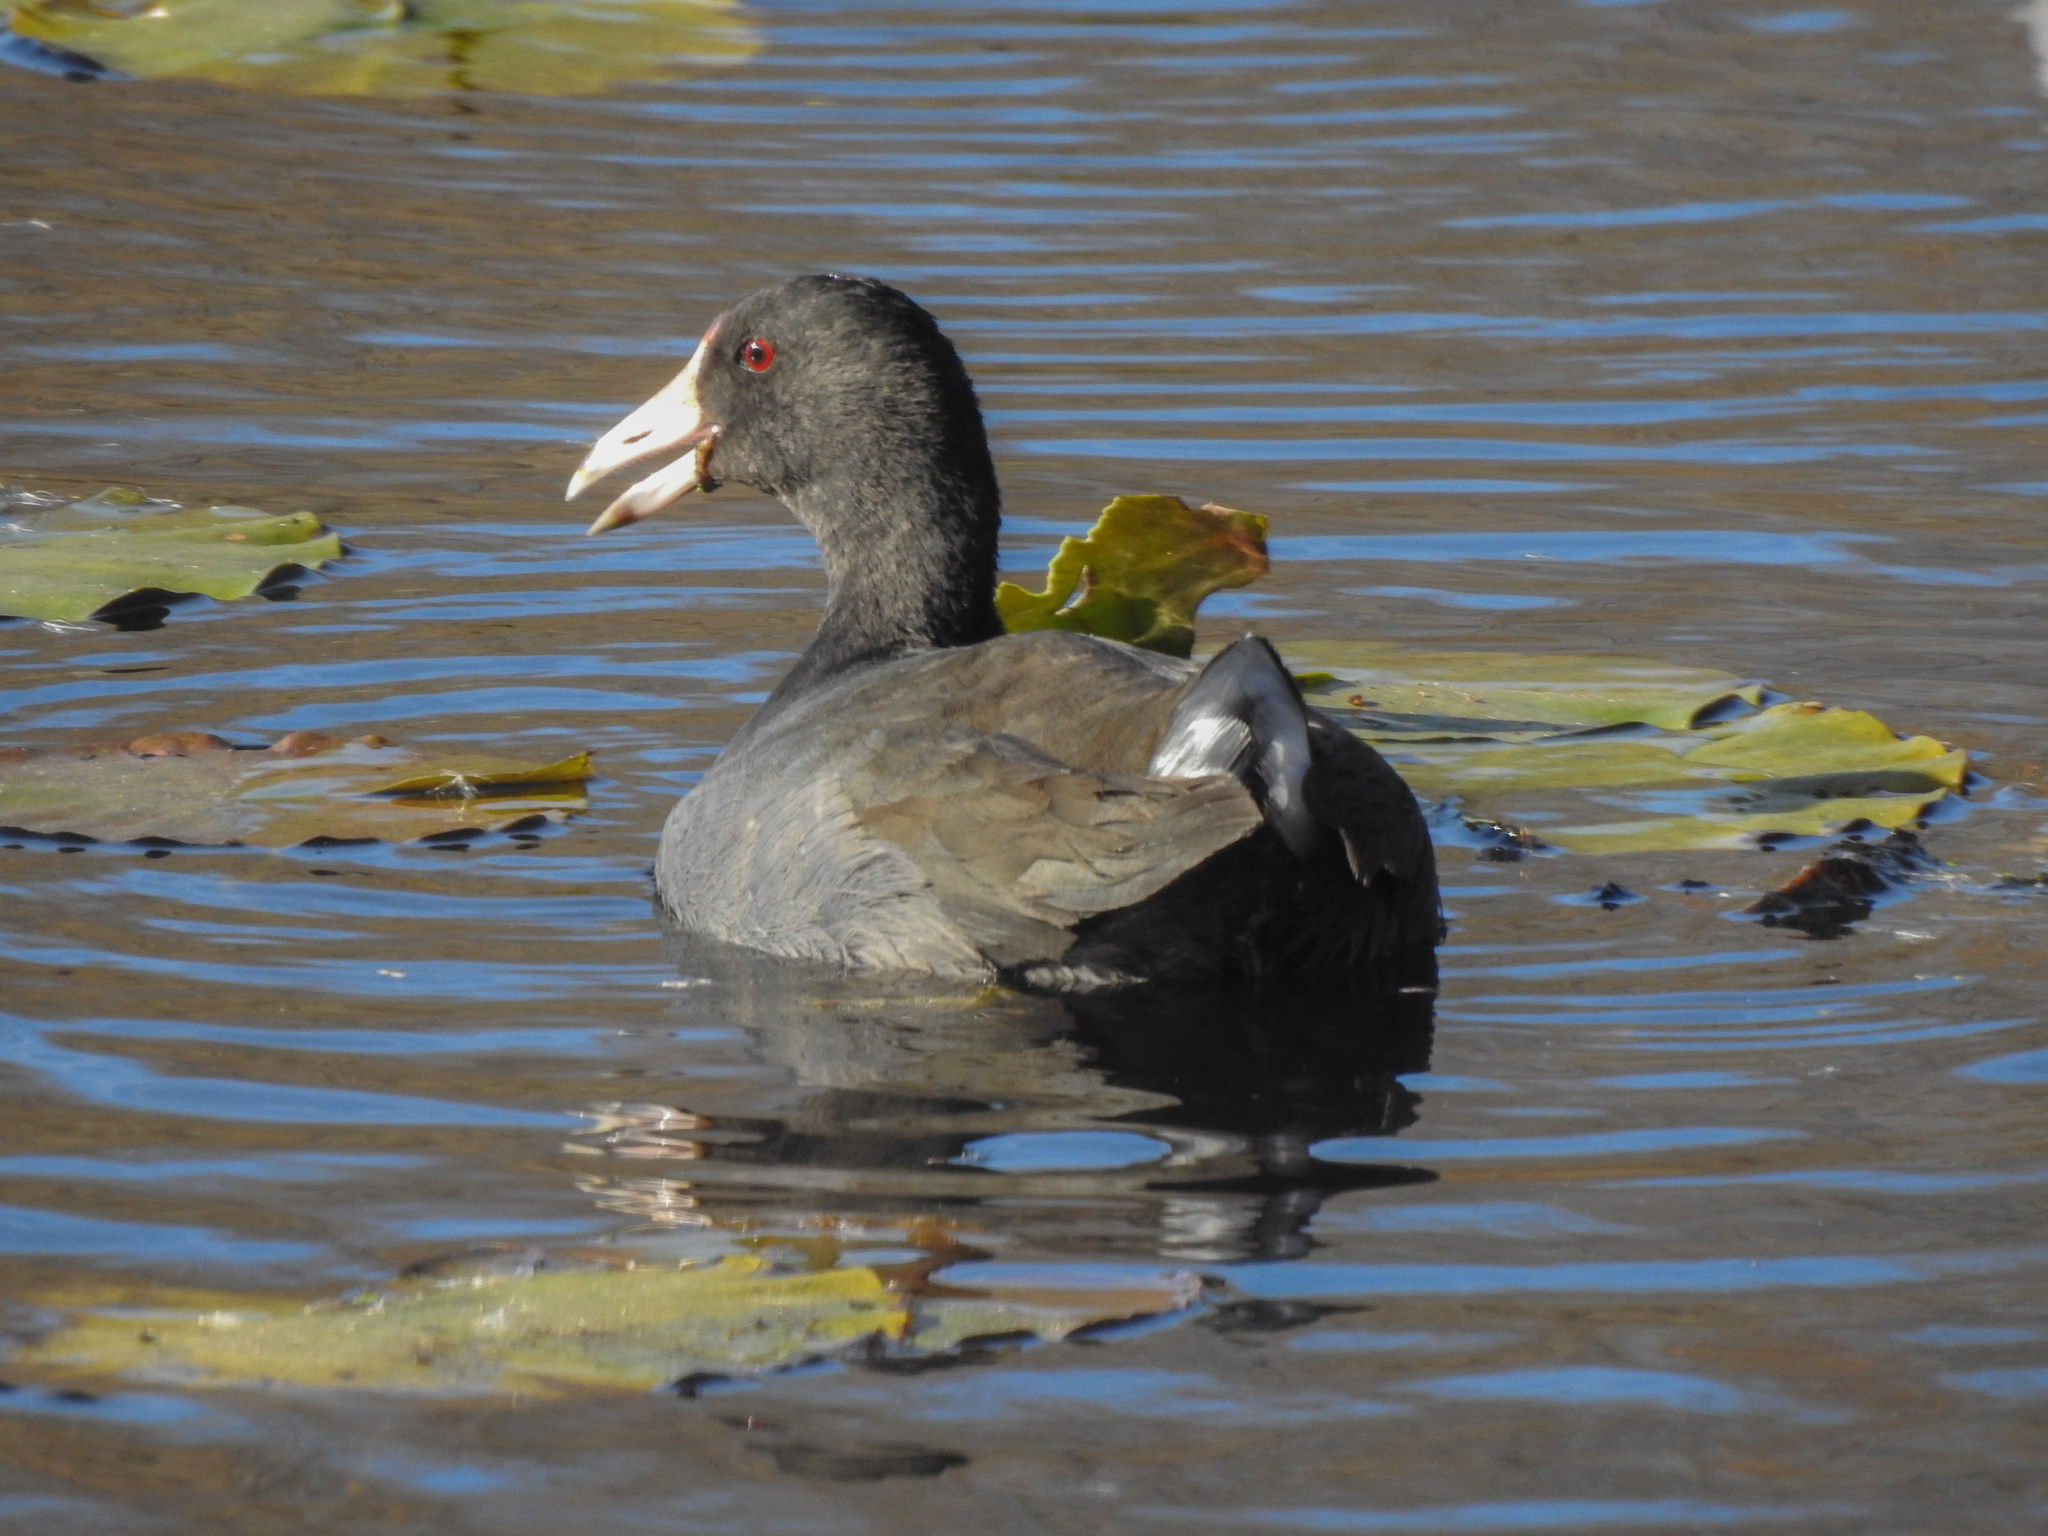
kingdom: Animalia
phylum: Chordata
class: Aves
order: Gruiformes
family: Rallidae
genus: Fulica
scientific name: Fulica americana
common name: American coot
